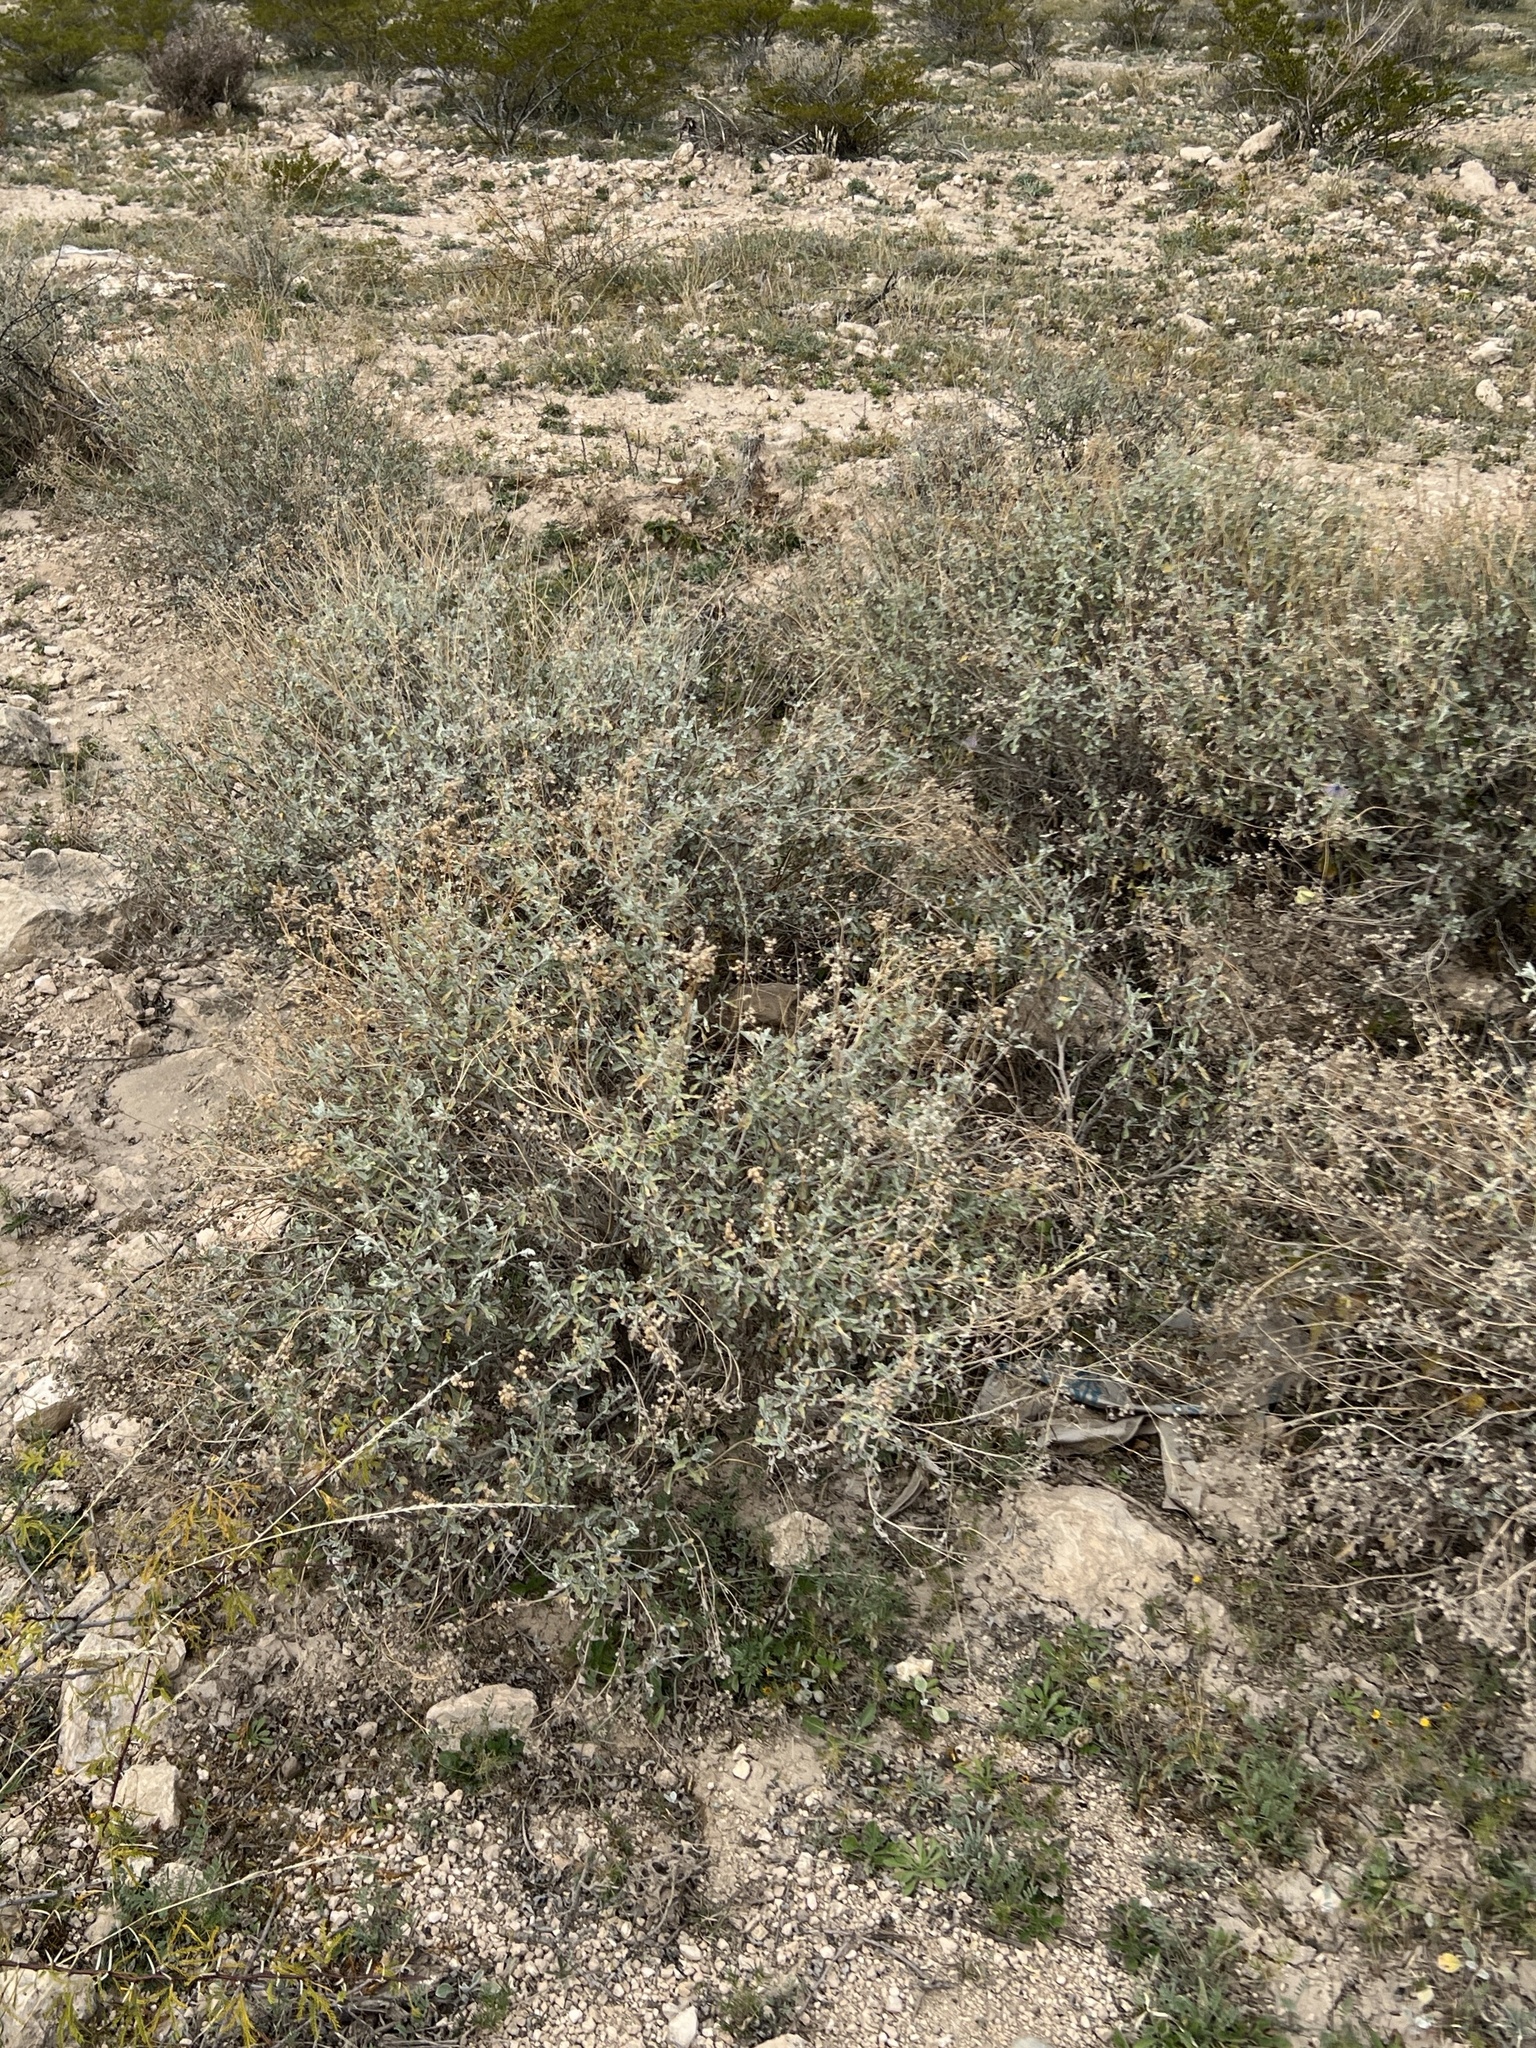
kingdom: Plantae
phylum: Tracheophyta
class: Magnoliopsida
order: Asterales
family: Asteraceae
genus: Parthenium
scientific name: Parthenium incanum
